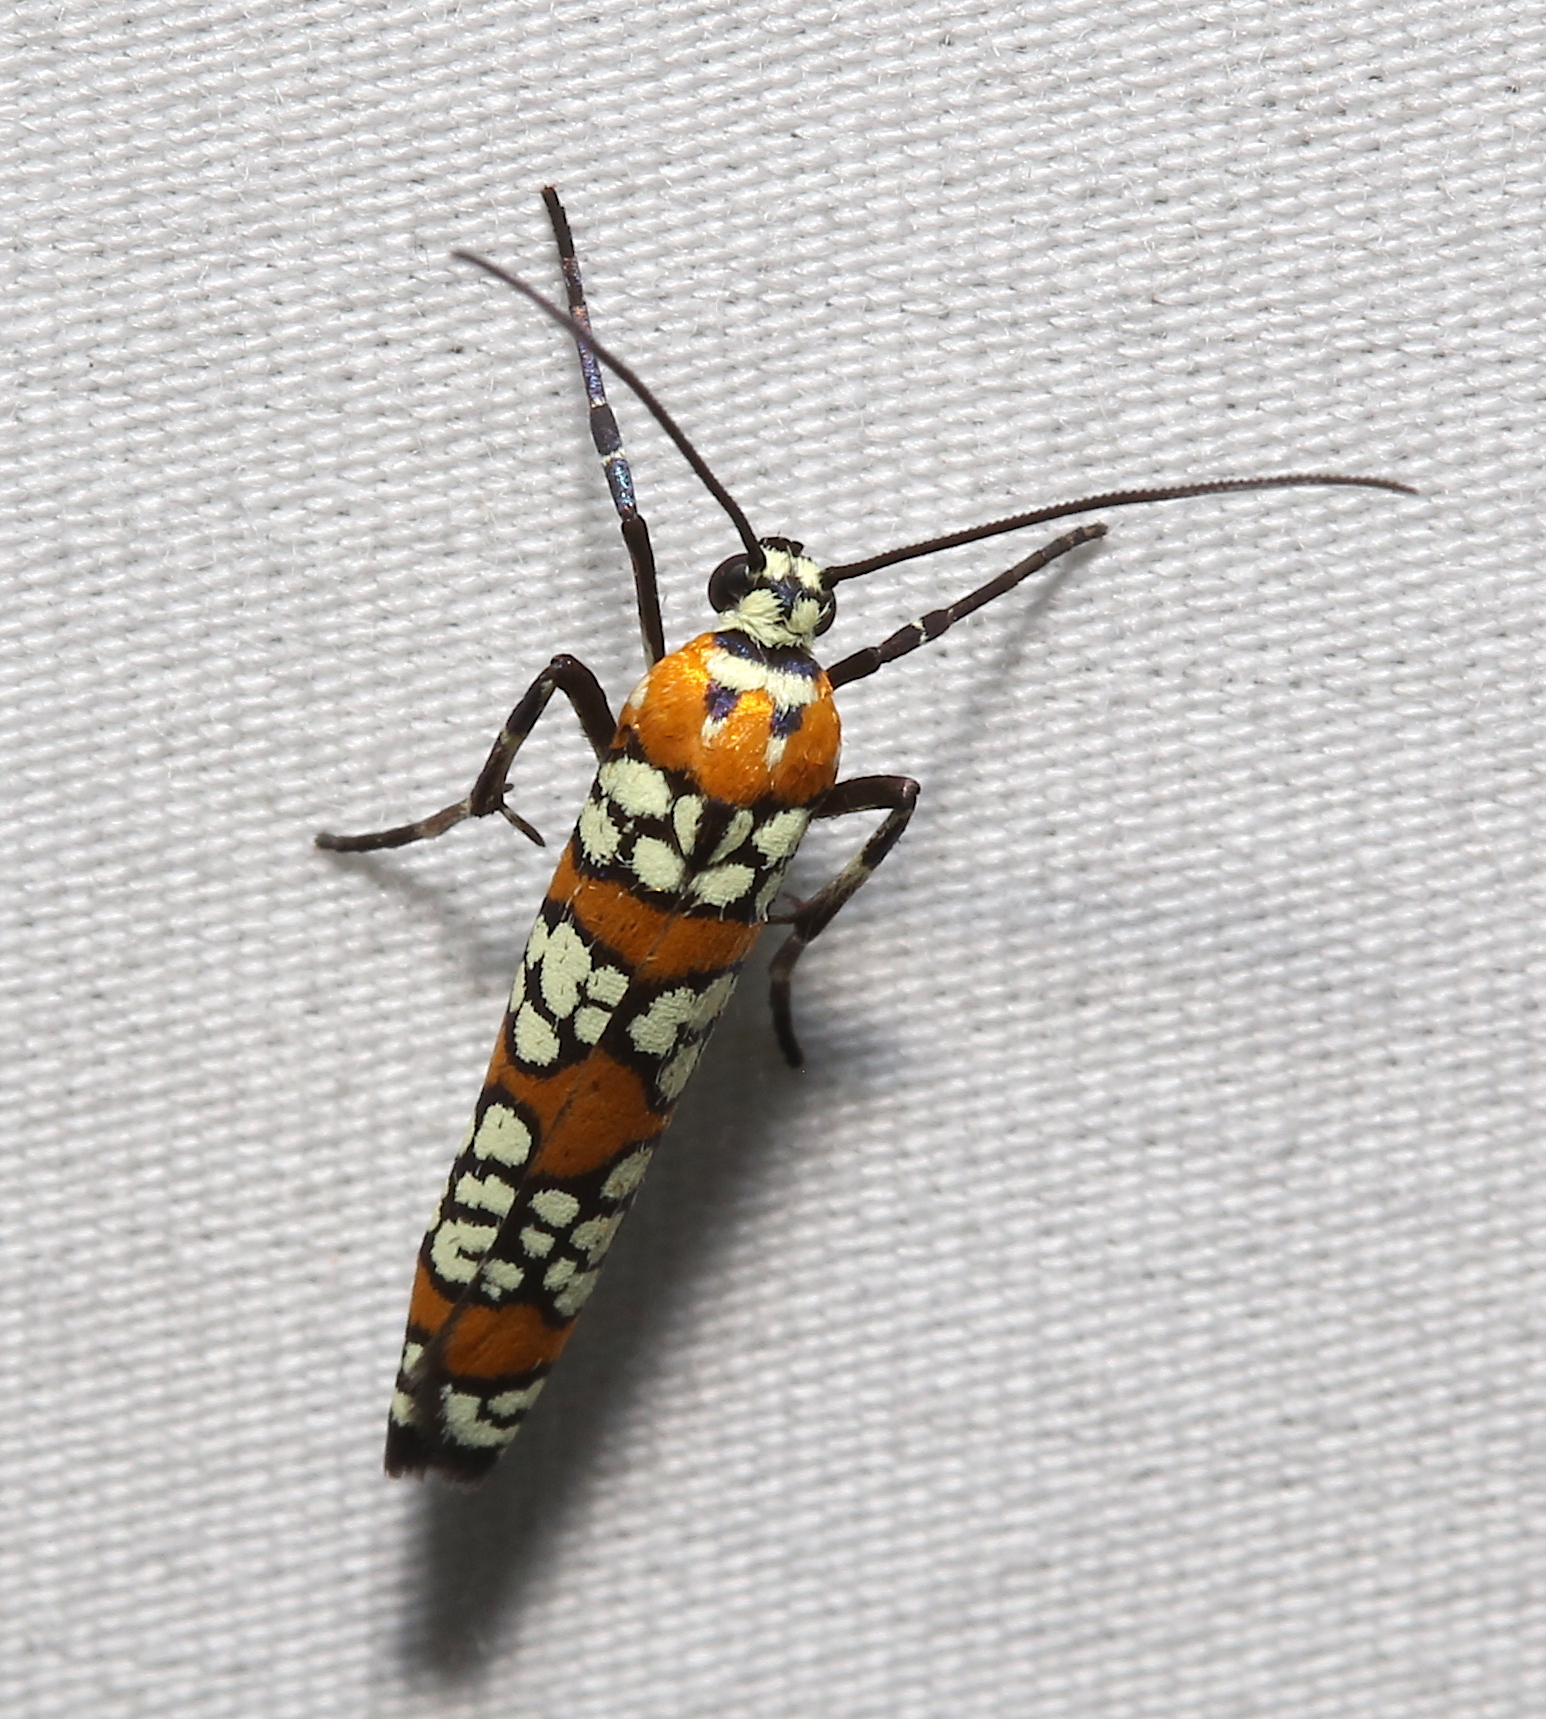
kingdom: Animalia
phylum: Arthropoda
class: Insecta
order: Lepidoptera
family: Attevidae
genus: Atteva
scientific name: Atteva punctella
